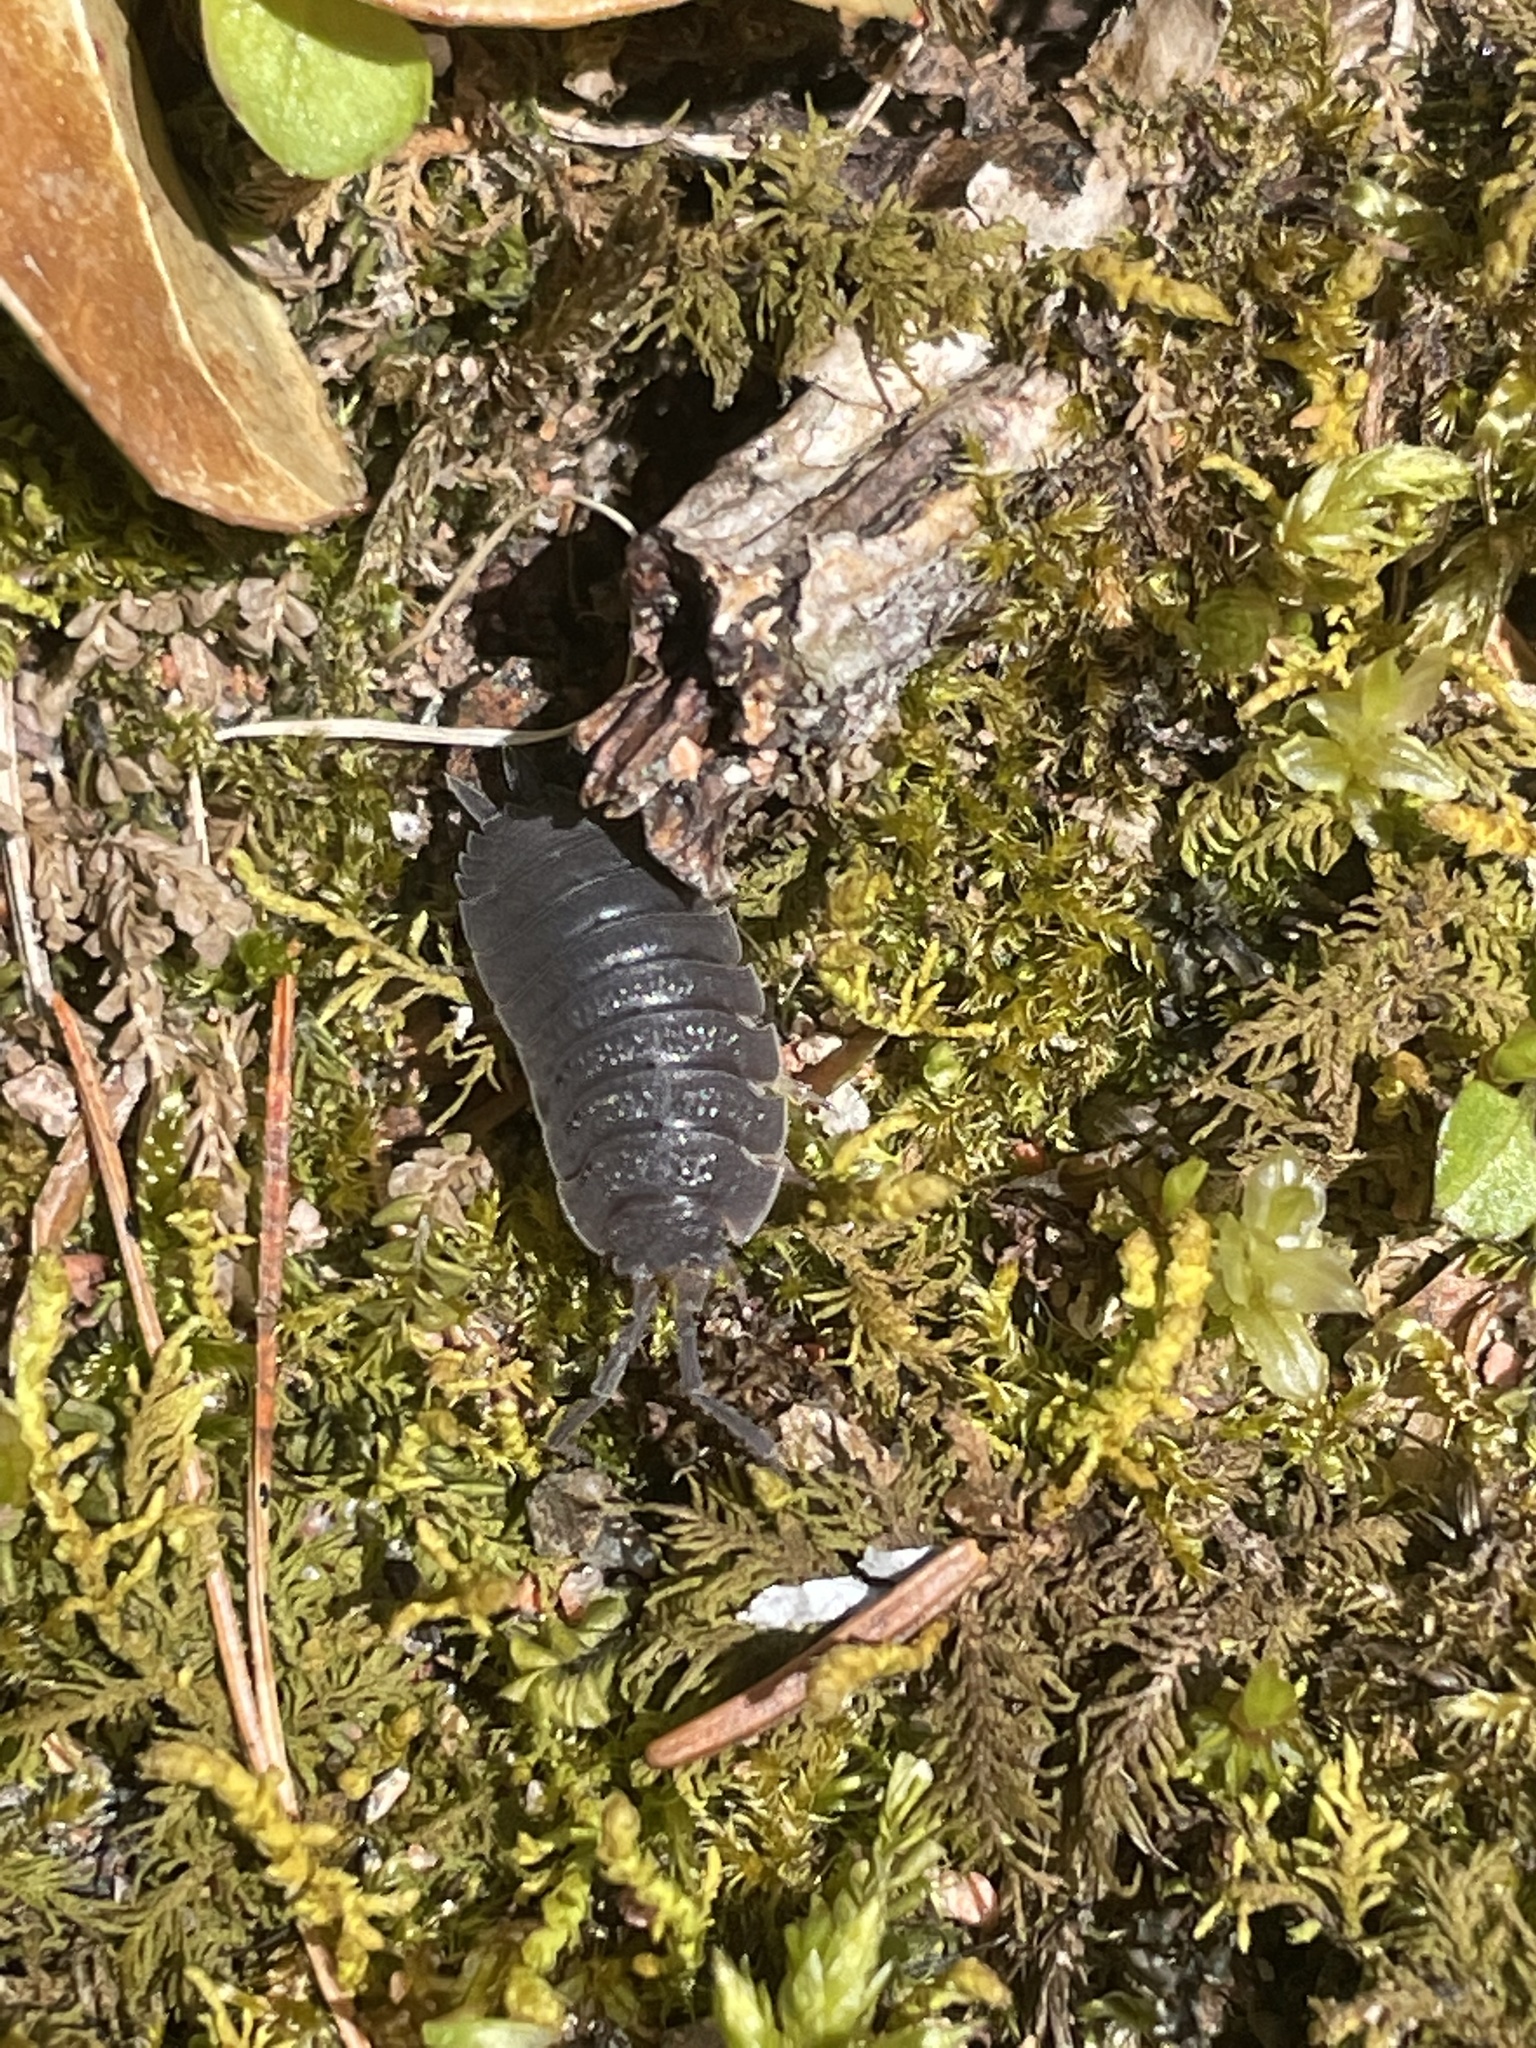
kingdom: Animalia
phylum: Arthropoda
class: Malacostraca
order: Isopoda
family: Porcellionidae
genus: Porcellio
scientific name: Porcellio scaber
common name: Common rough woodlouse
